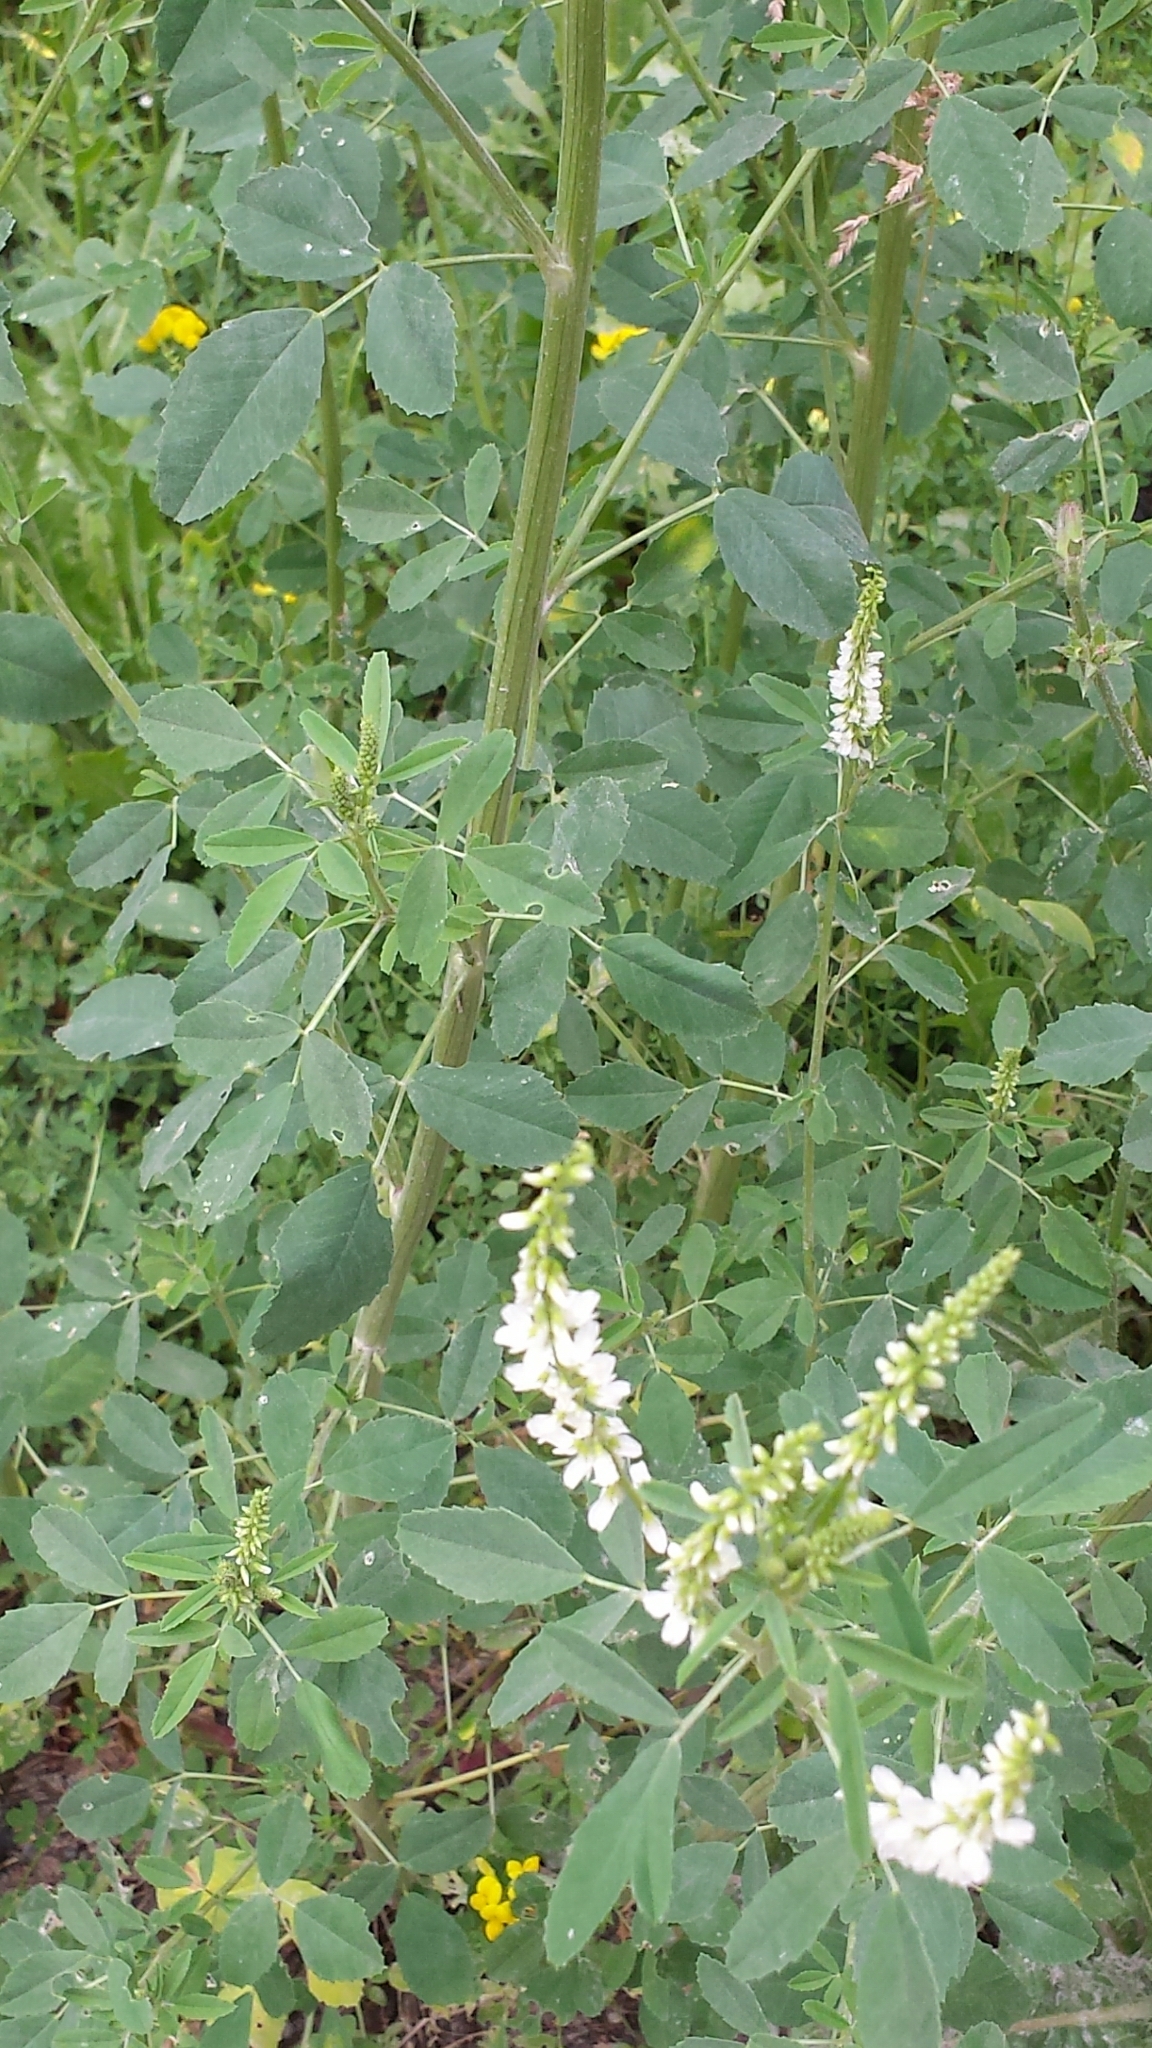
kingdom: Plantae
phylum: Tracheophyta
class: Magnoliopsida
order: Fabales
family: Fabaceae
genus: Melilotus
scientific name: Melilotus albus
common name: White melilot
